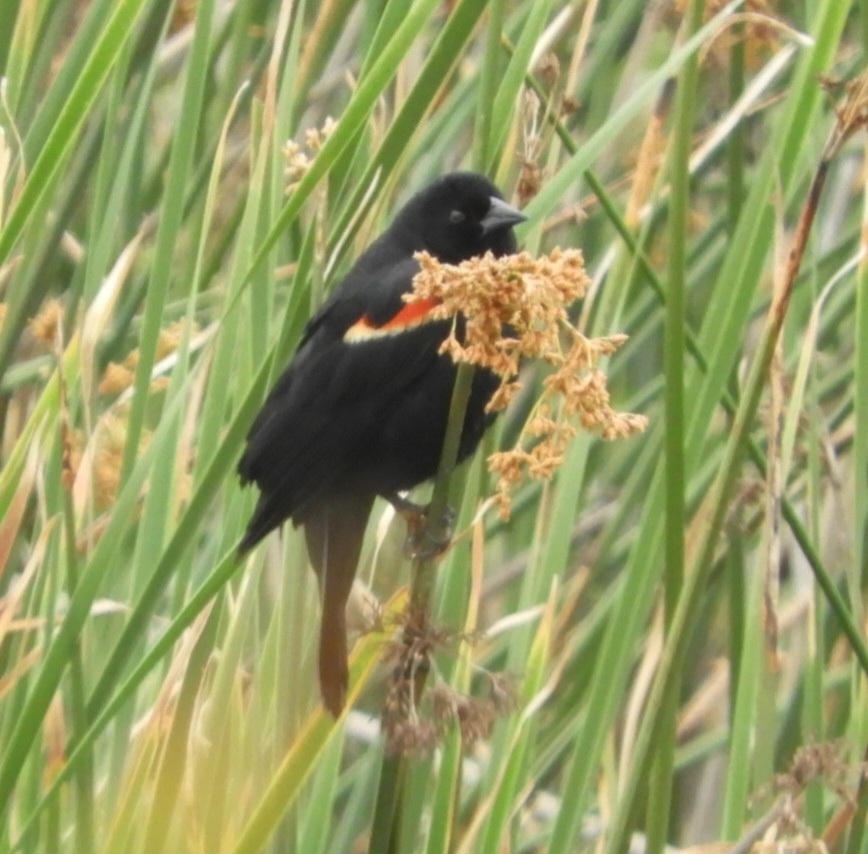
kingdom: Animalia
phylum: Chordata
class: Aves
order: Passeriformes
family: Icteridae
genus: Agelaius
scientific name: Agelaius phoeniceus
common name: Red-winged blackbird
